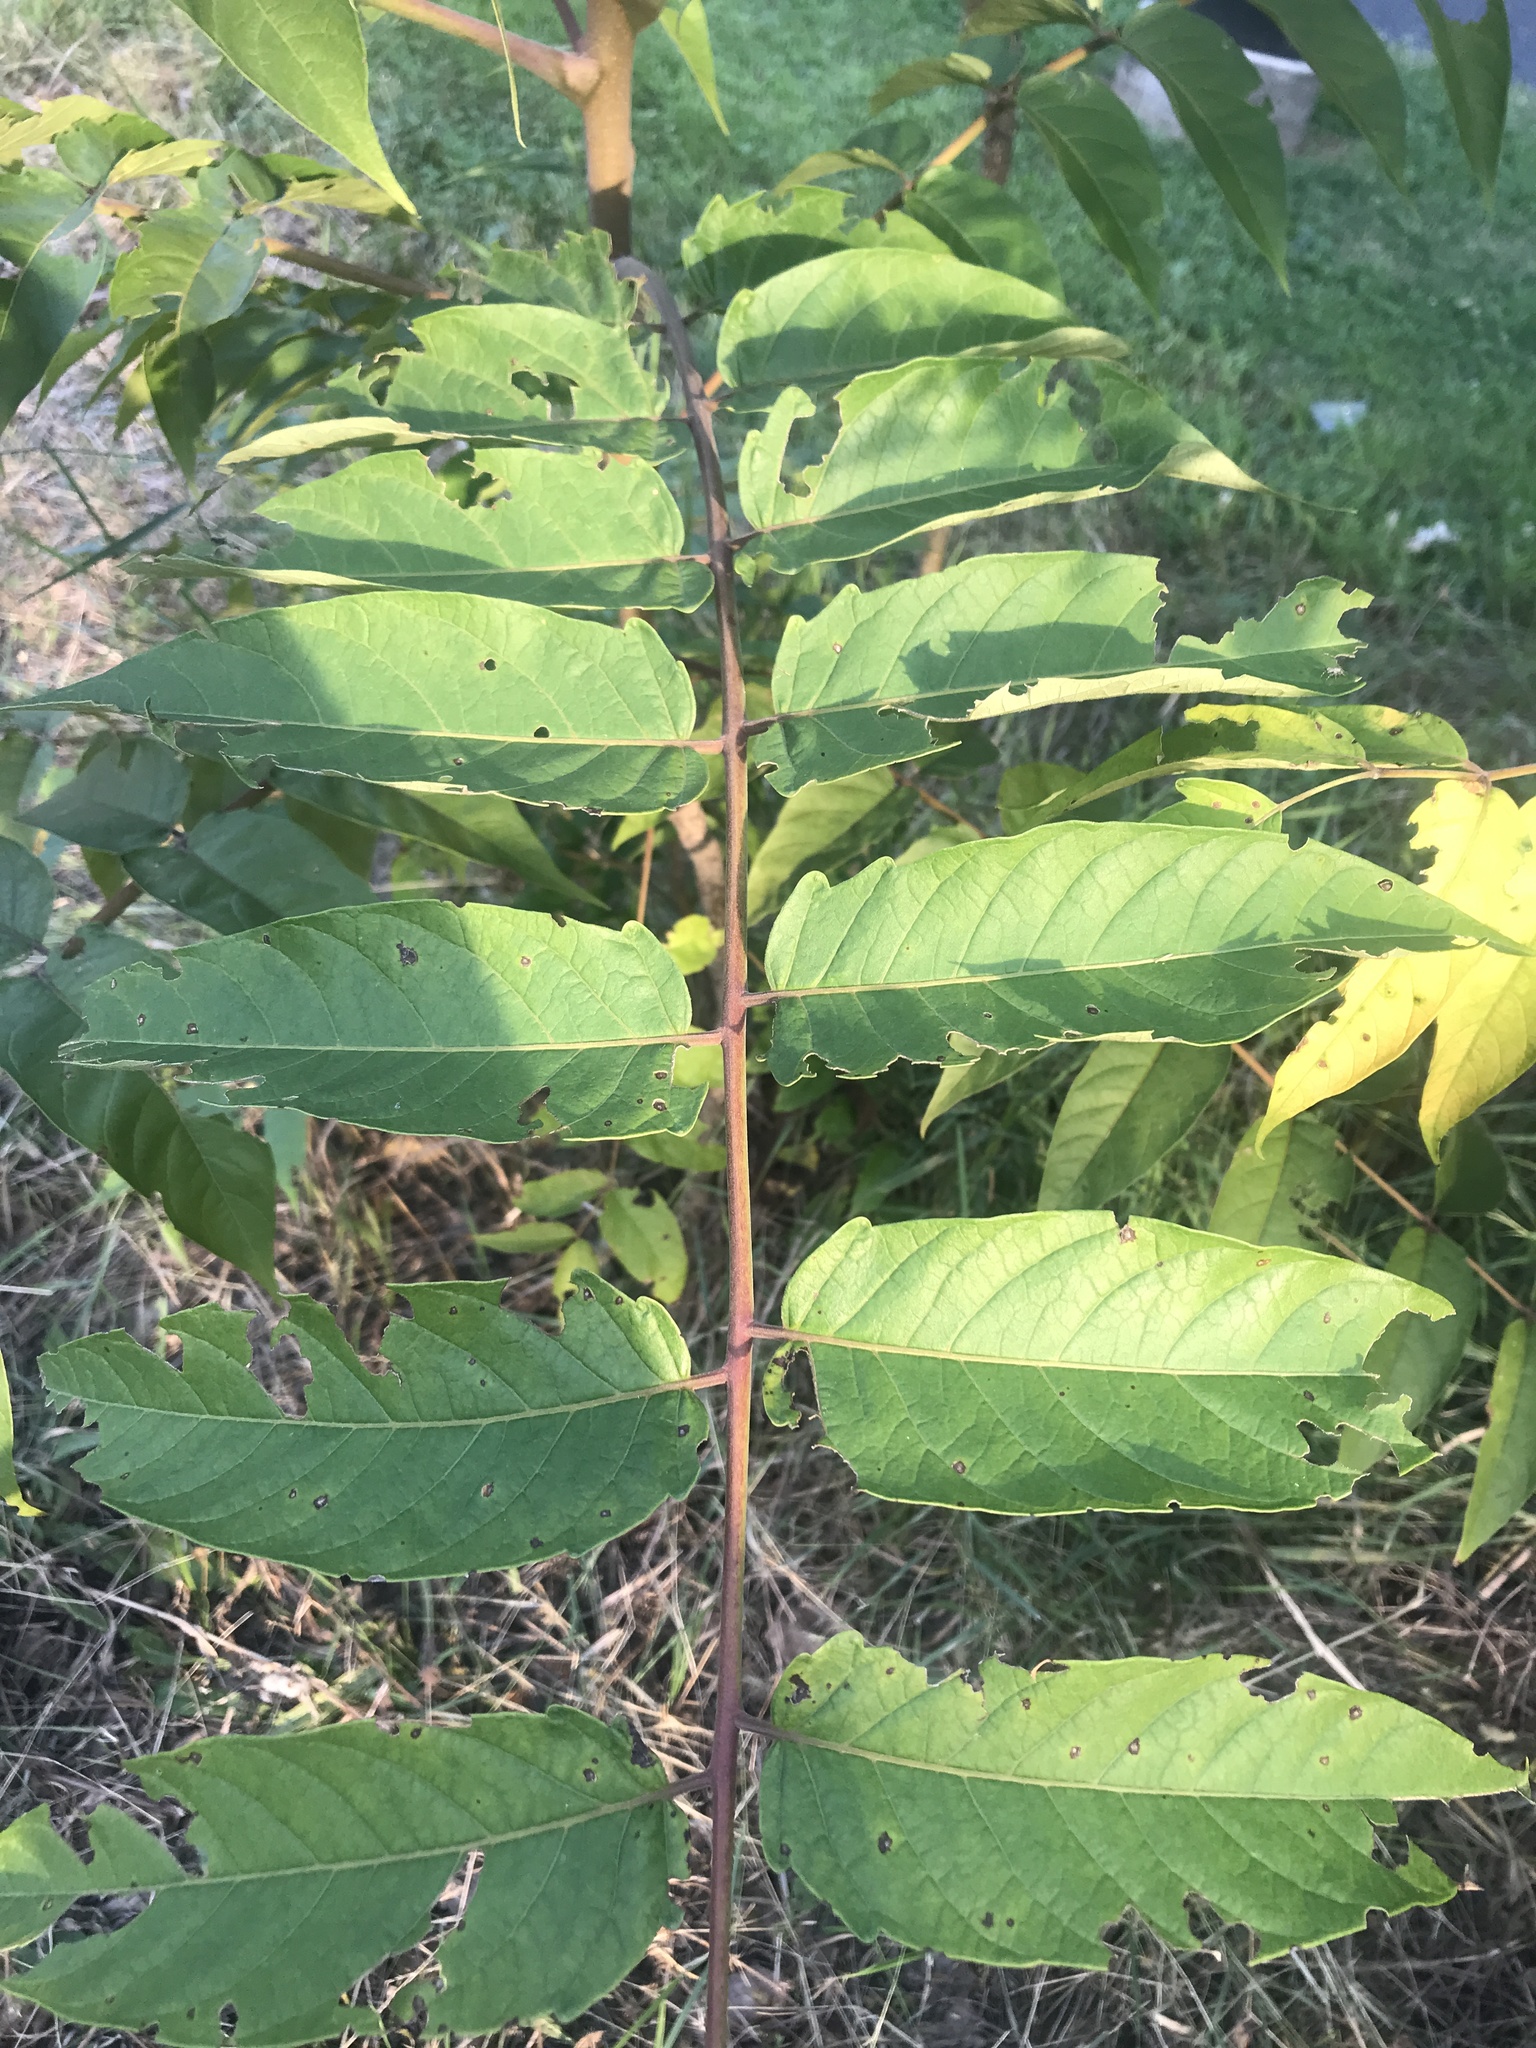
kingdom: Plantae
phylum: Tracheophyta
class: Magnoliopsida
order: Sapindales
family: Simaroubaceae
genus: Ailanthus
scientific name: Ailanthus altissima
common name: Tree-of-heaven
